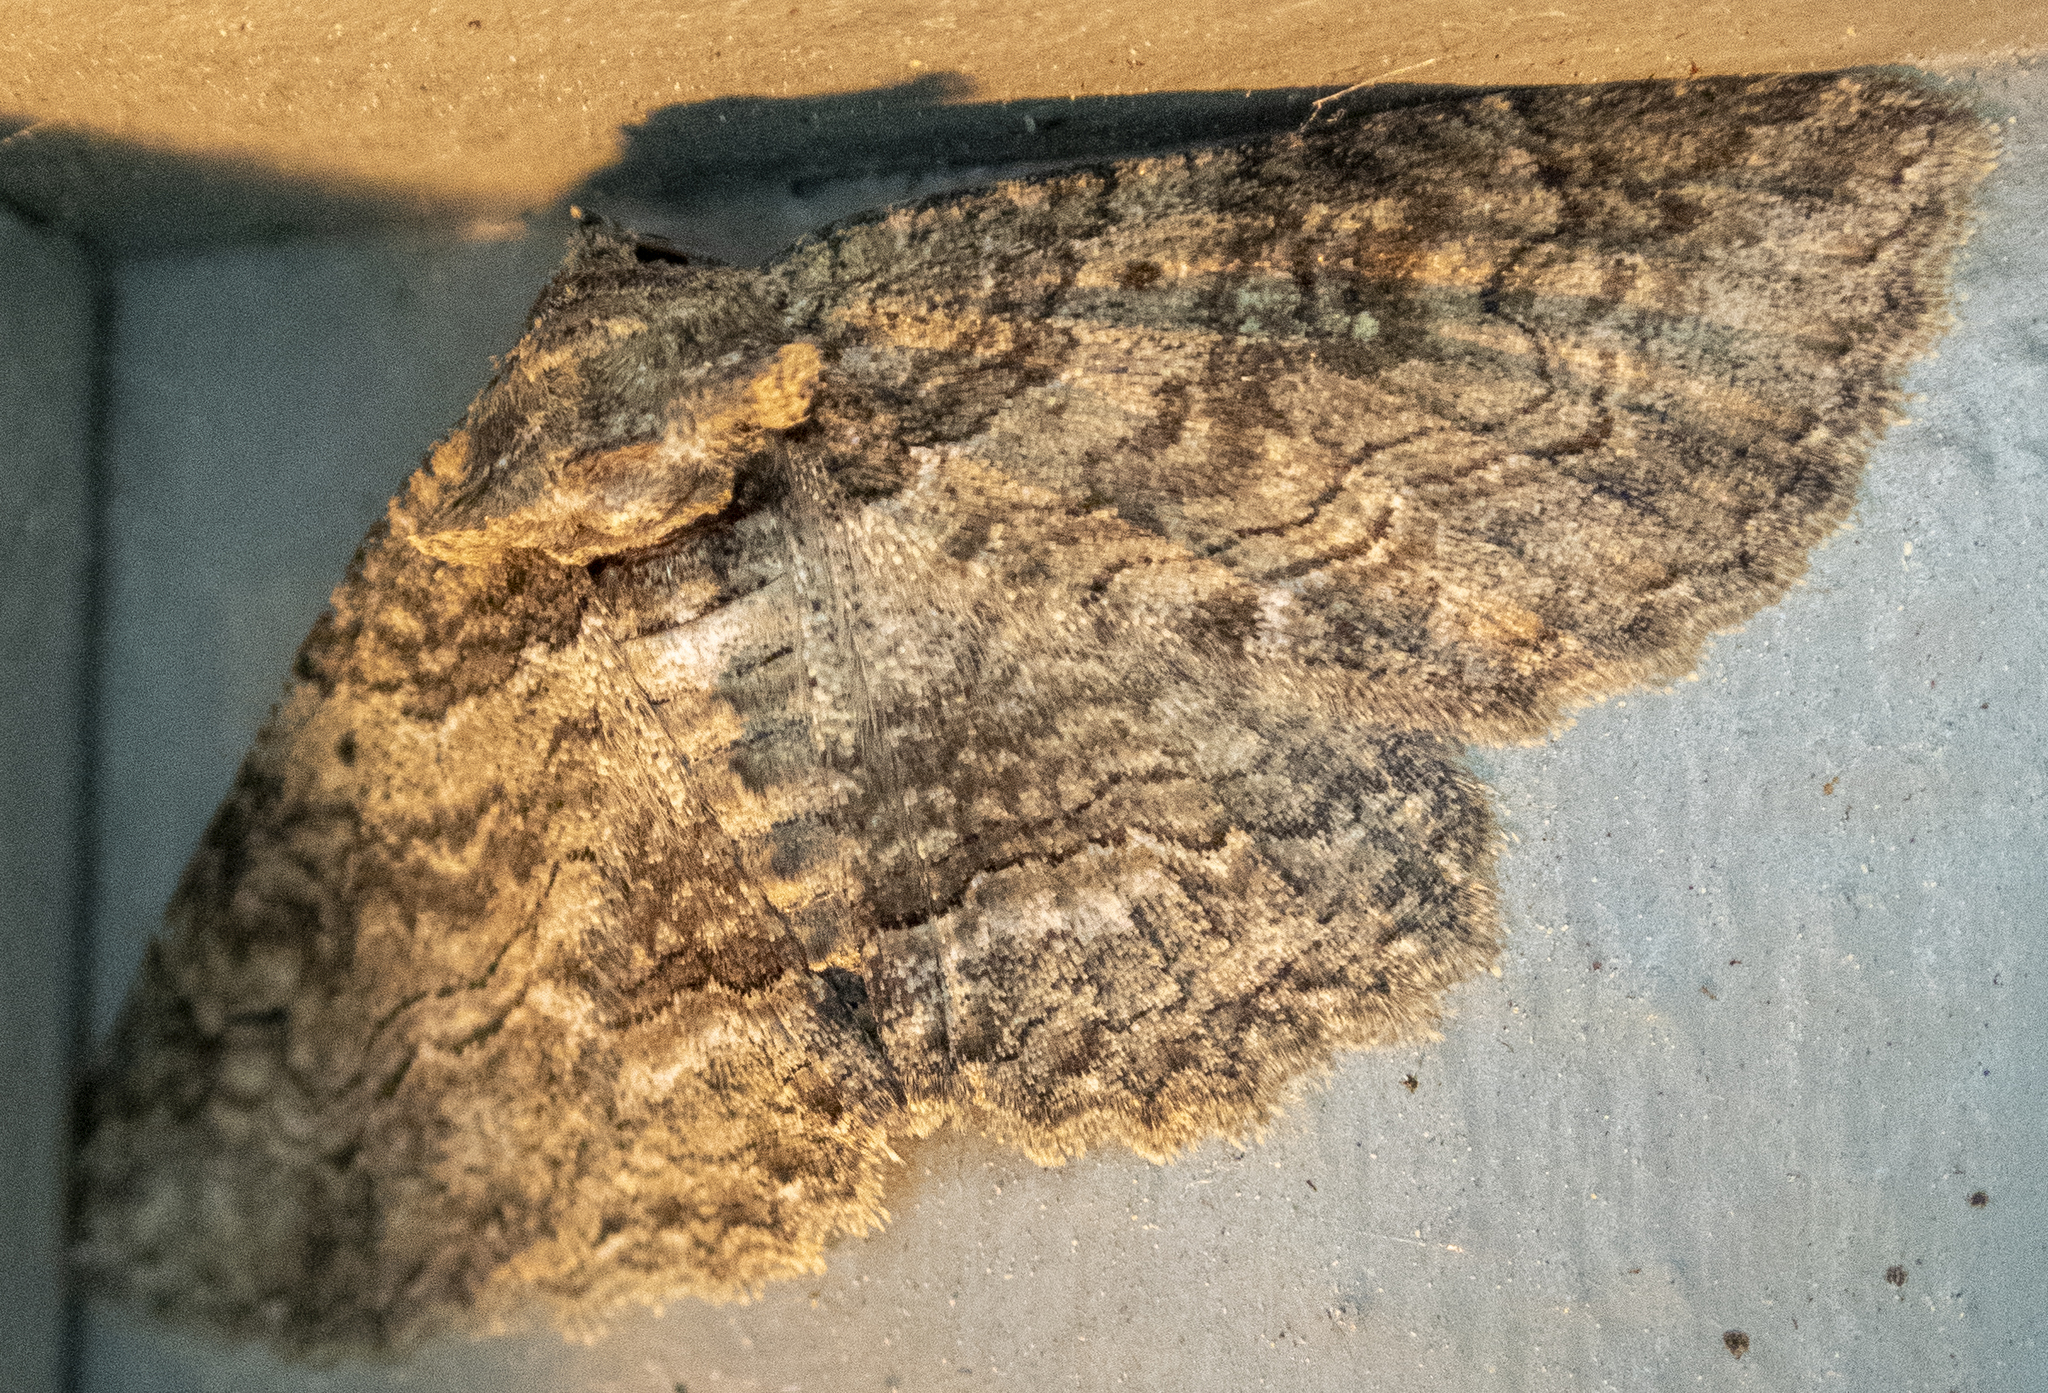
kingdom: Animalia
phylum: Arthropoda
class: Insecta
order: Lepidoptera
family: Erebidae
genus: Zale
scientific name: Zale galbanata
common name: Maple zale
